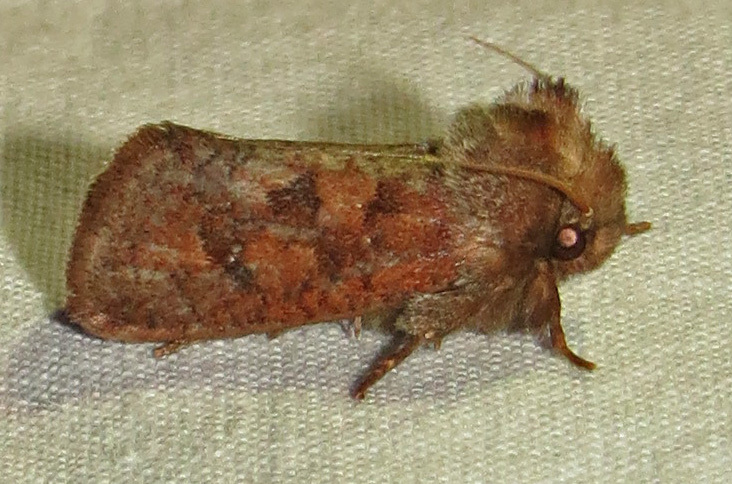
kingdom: Animalia
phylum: Arthropoda
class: Insecta
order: Lepidoptera
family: Tineidae
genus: Acrolophus
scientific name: Acrolophus plumifrontella
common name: Eastern grass tubeworm moth
